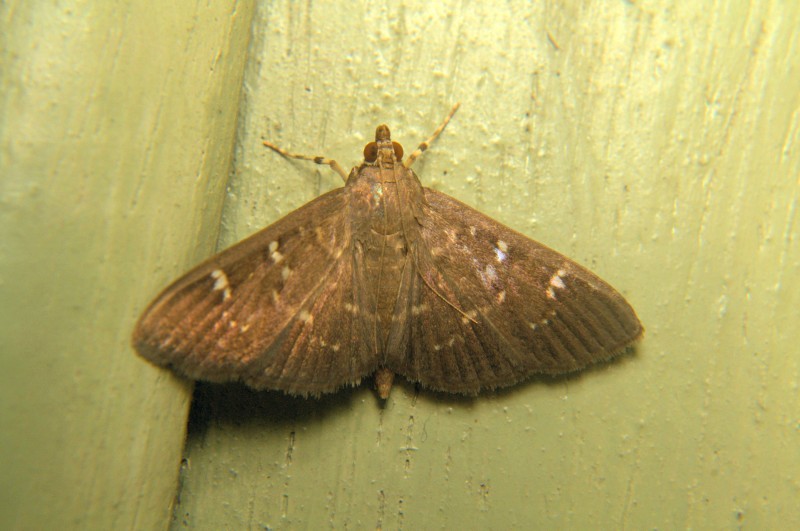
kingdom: Animalia
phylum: Arthropoda
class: Insecta
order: Lepidoptera
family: Crambidae
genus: Prorodes
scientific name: Prorodes mimica
